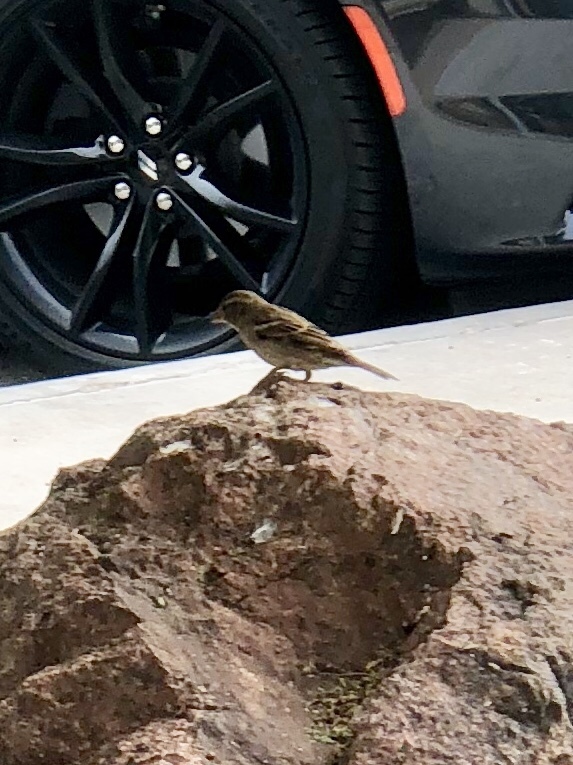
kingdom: Animalia
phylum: Chordata
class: Aves
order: Passeriformes
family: Passeridae
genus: Passer
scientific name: Passer domesticus
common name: House sparrow
